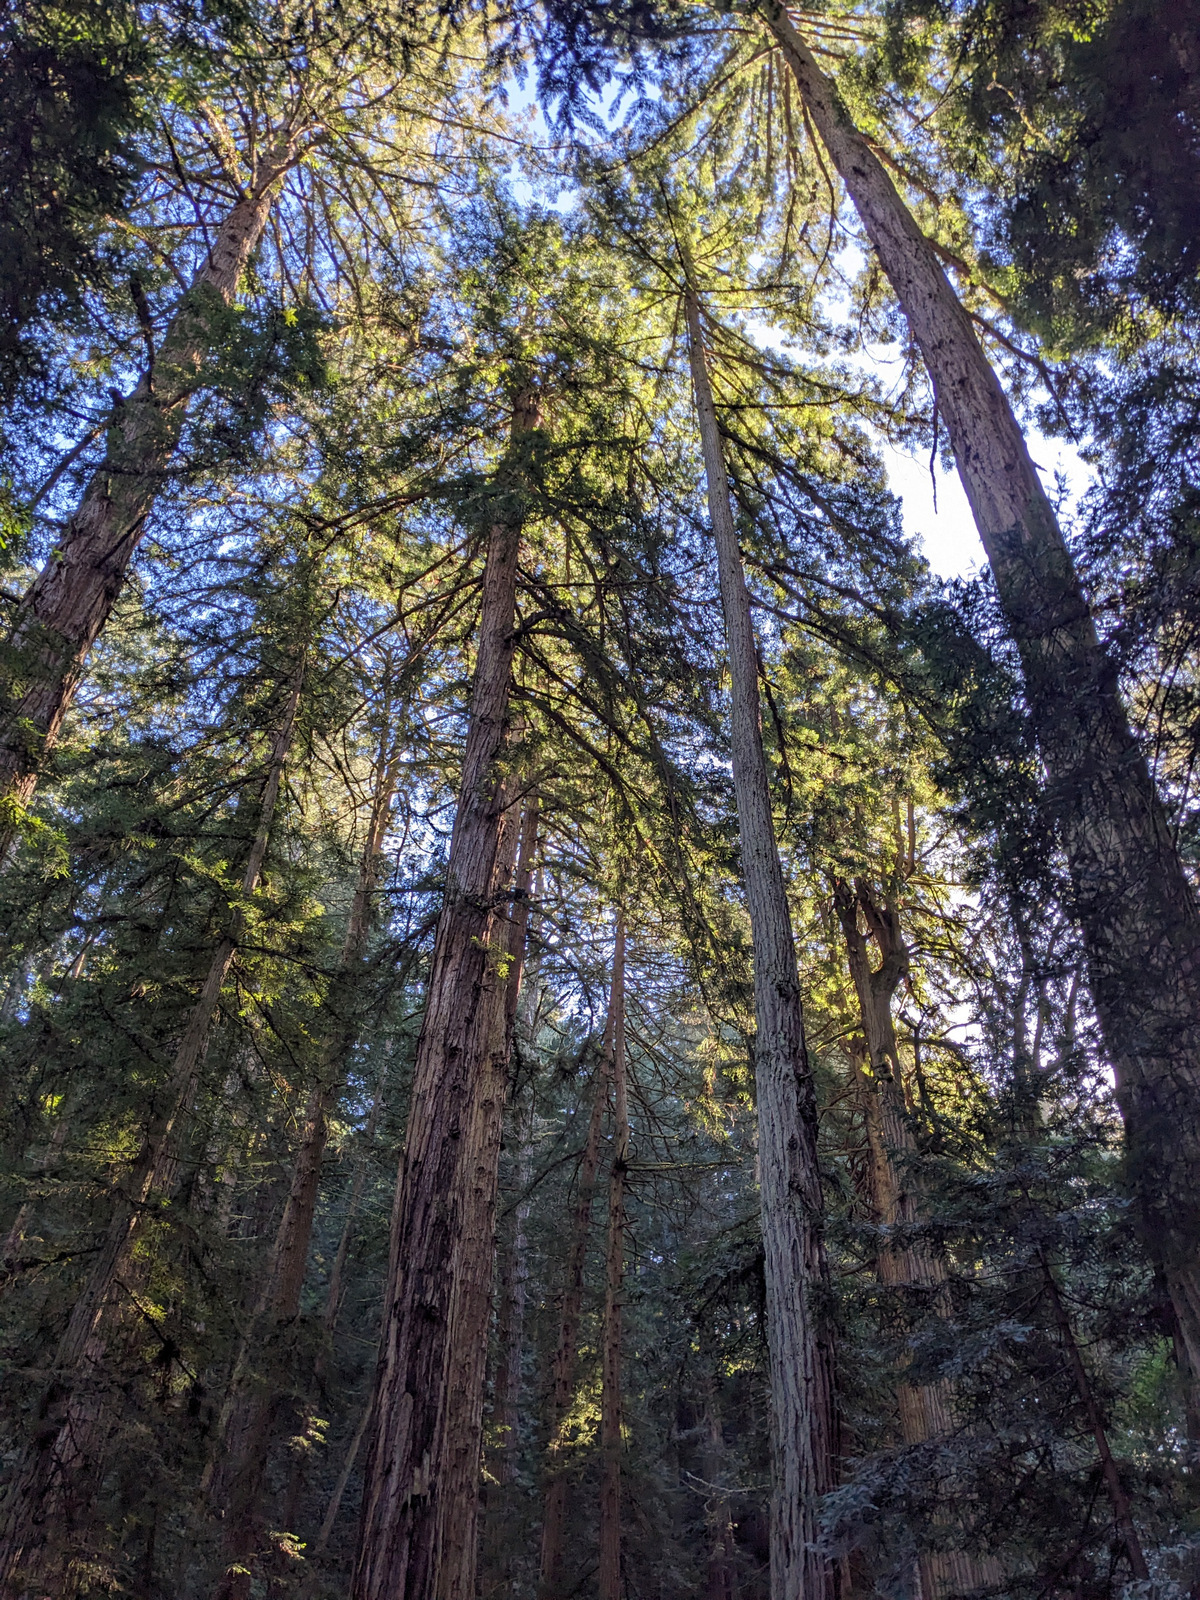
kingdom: Plantae
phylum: Tracheophyta
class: Pinopsida
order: Pinales
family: Cupressaceae
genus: Sequoia
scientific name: Sequoia sempervirens
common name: Coast redwood
